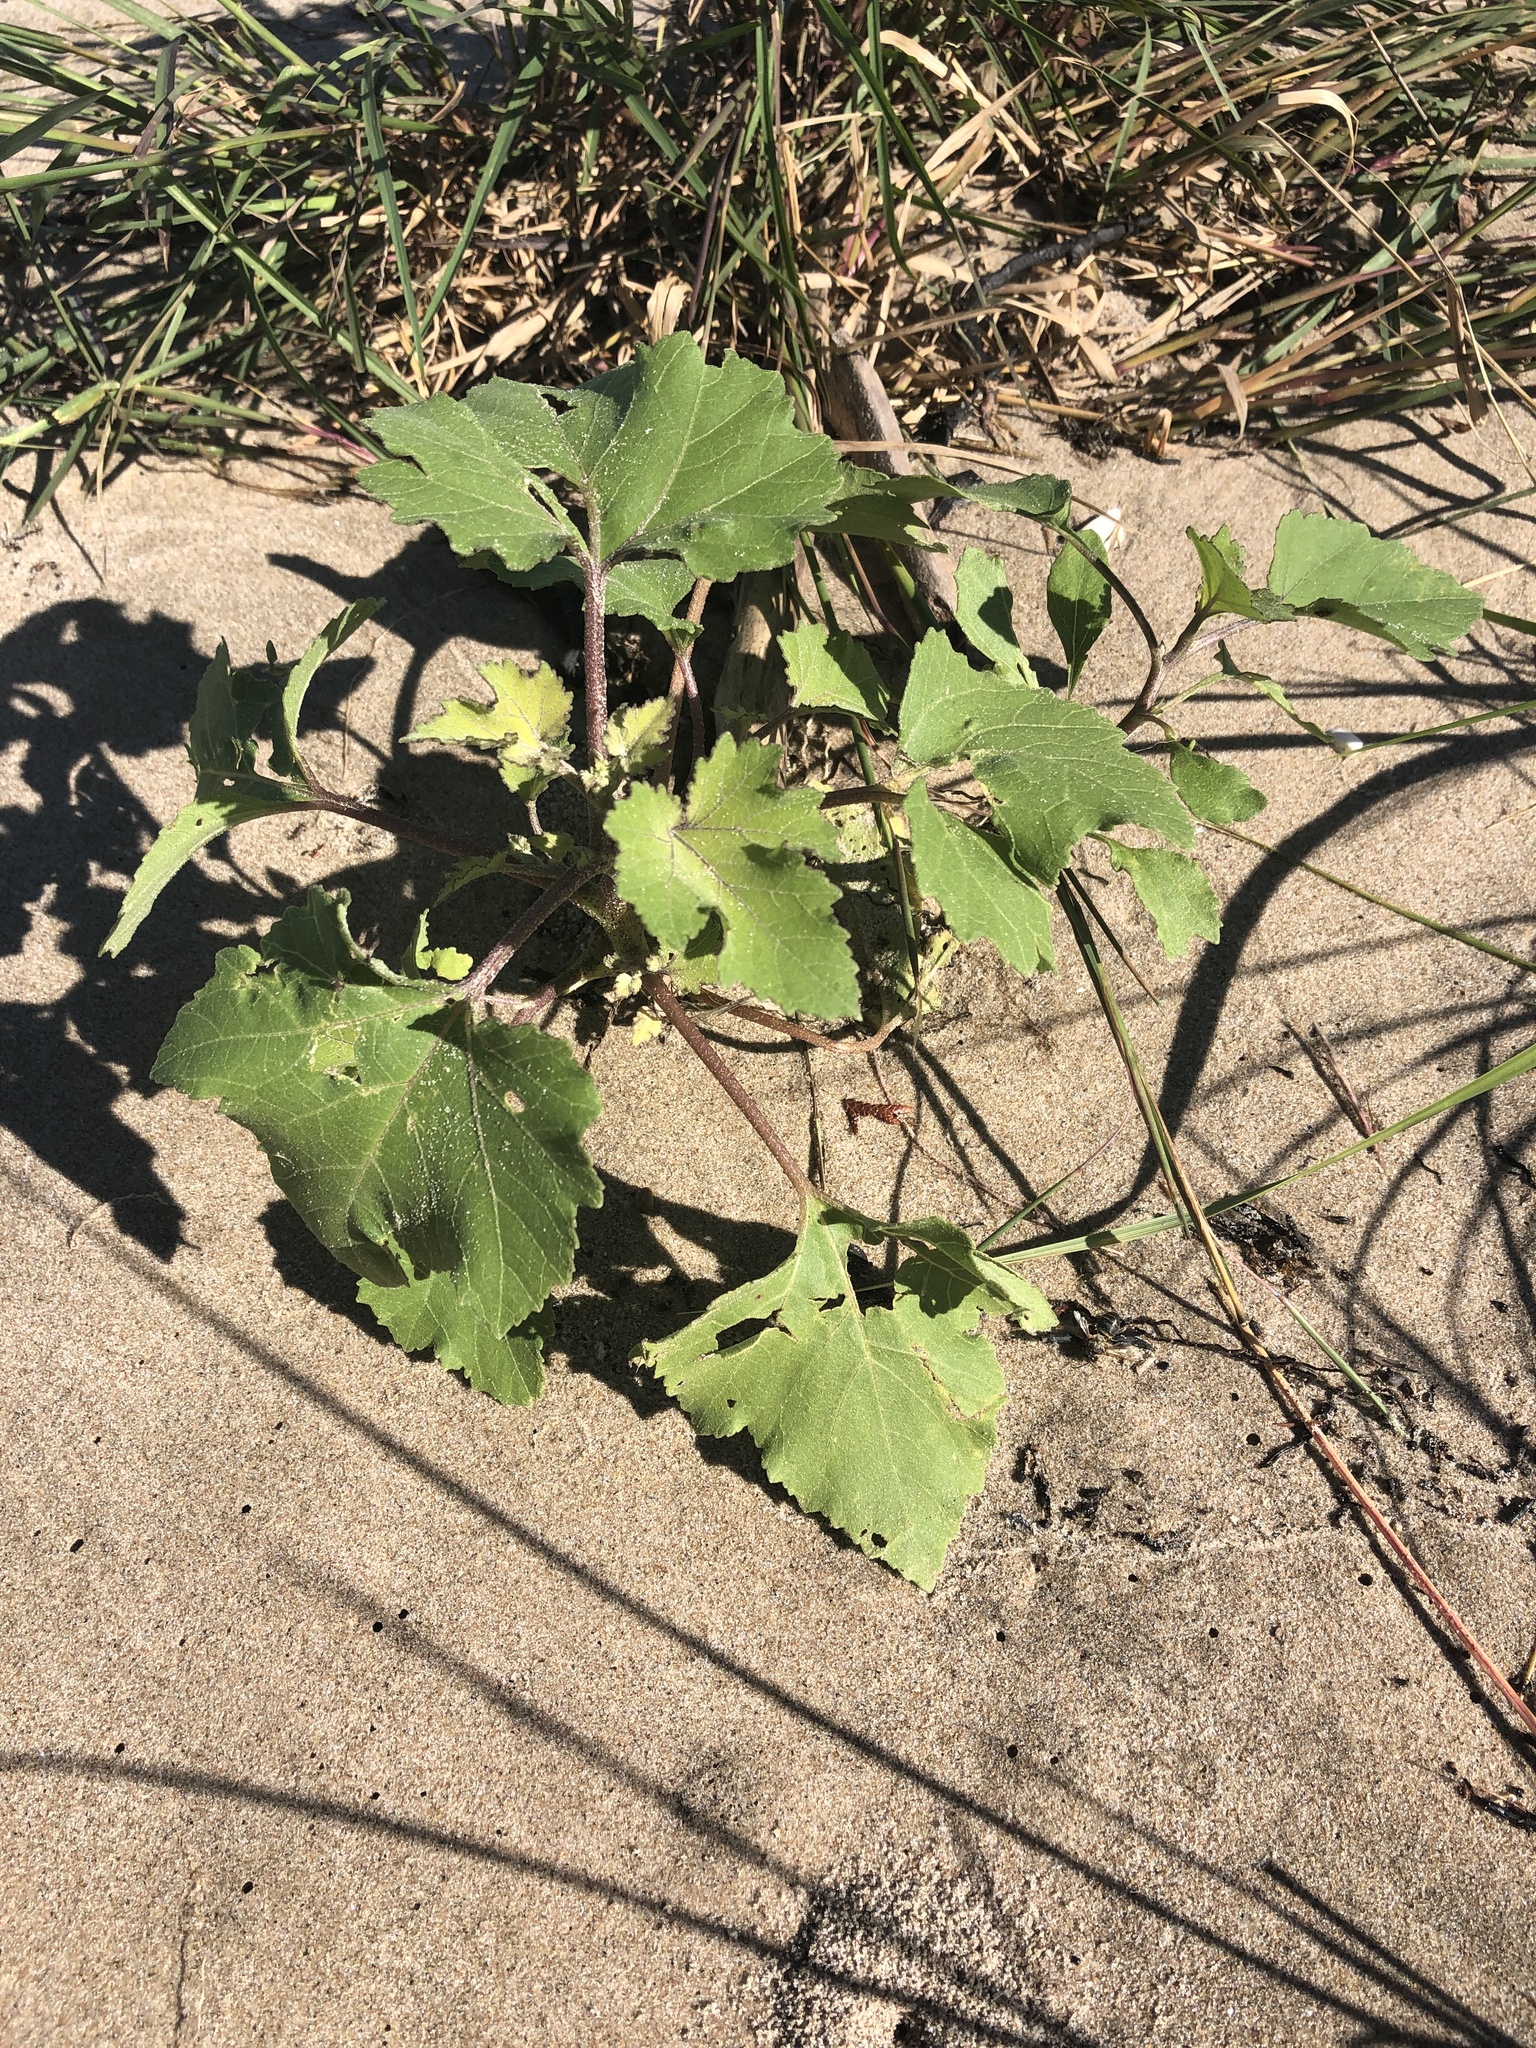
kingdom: Plantae
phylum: Tracheophyta
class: Magnoliopsida
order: Asterales
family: Asteraceae
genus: Xanthium
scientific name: Xanthium strumarium
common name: Rough cocklebur
